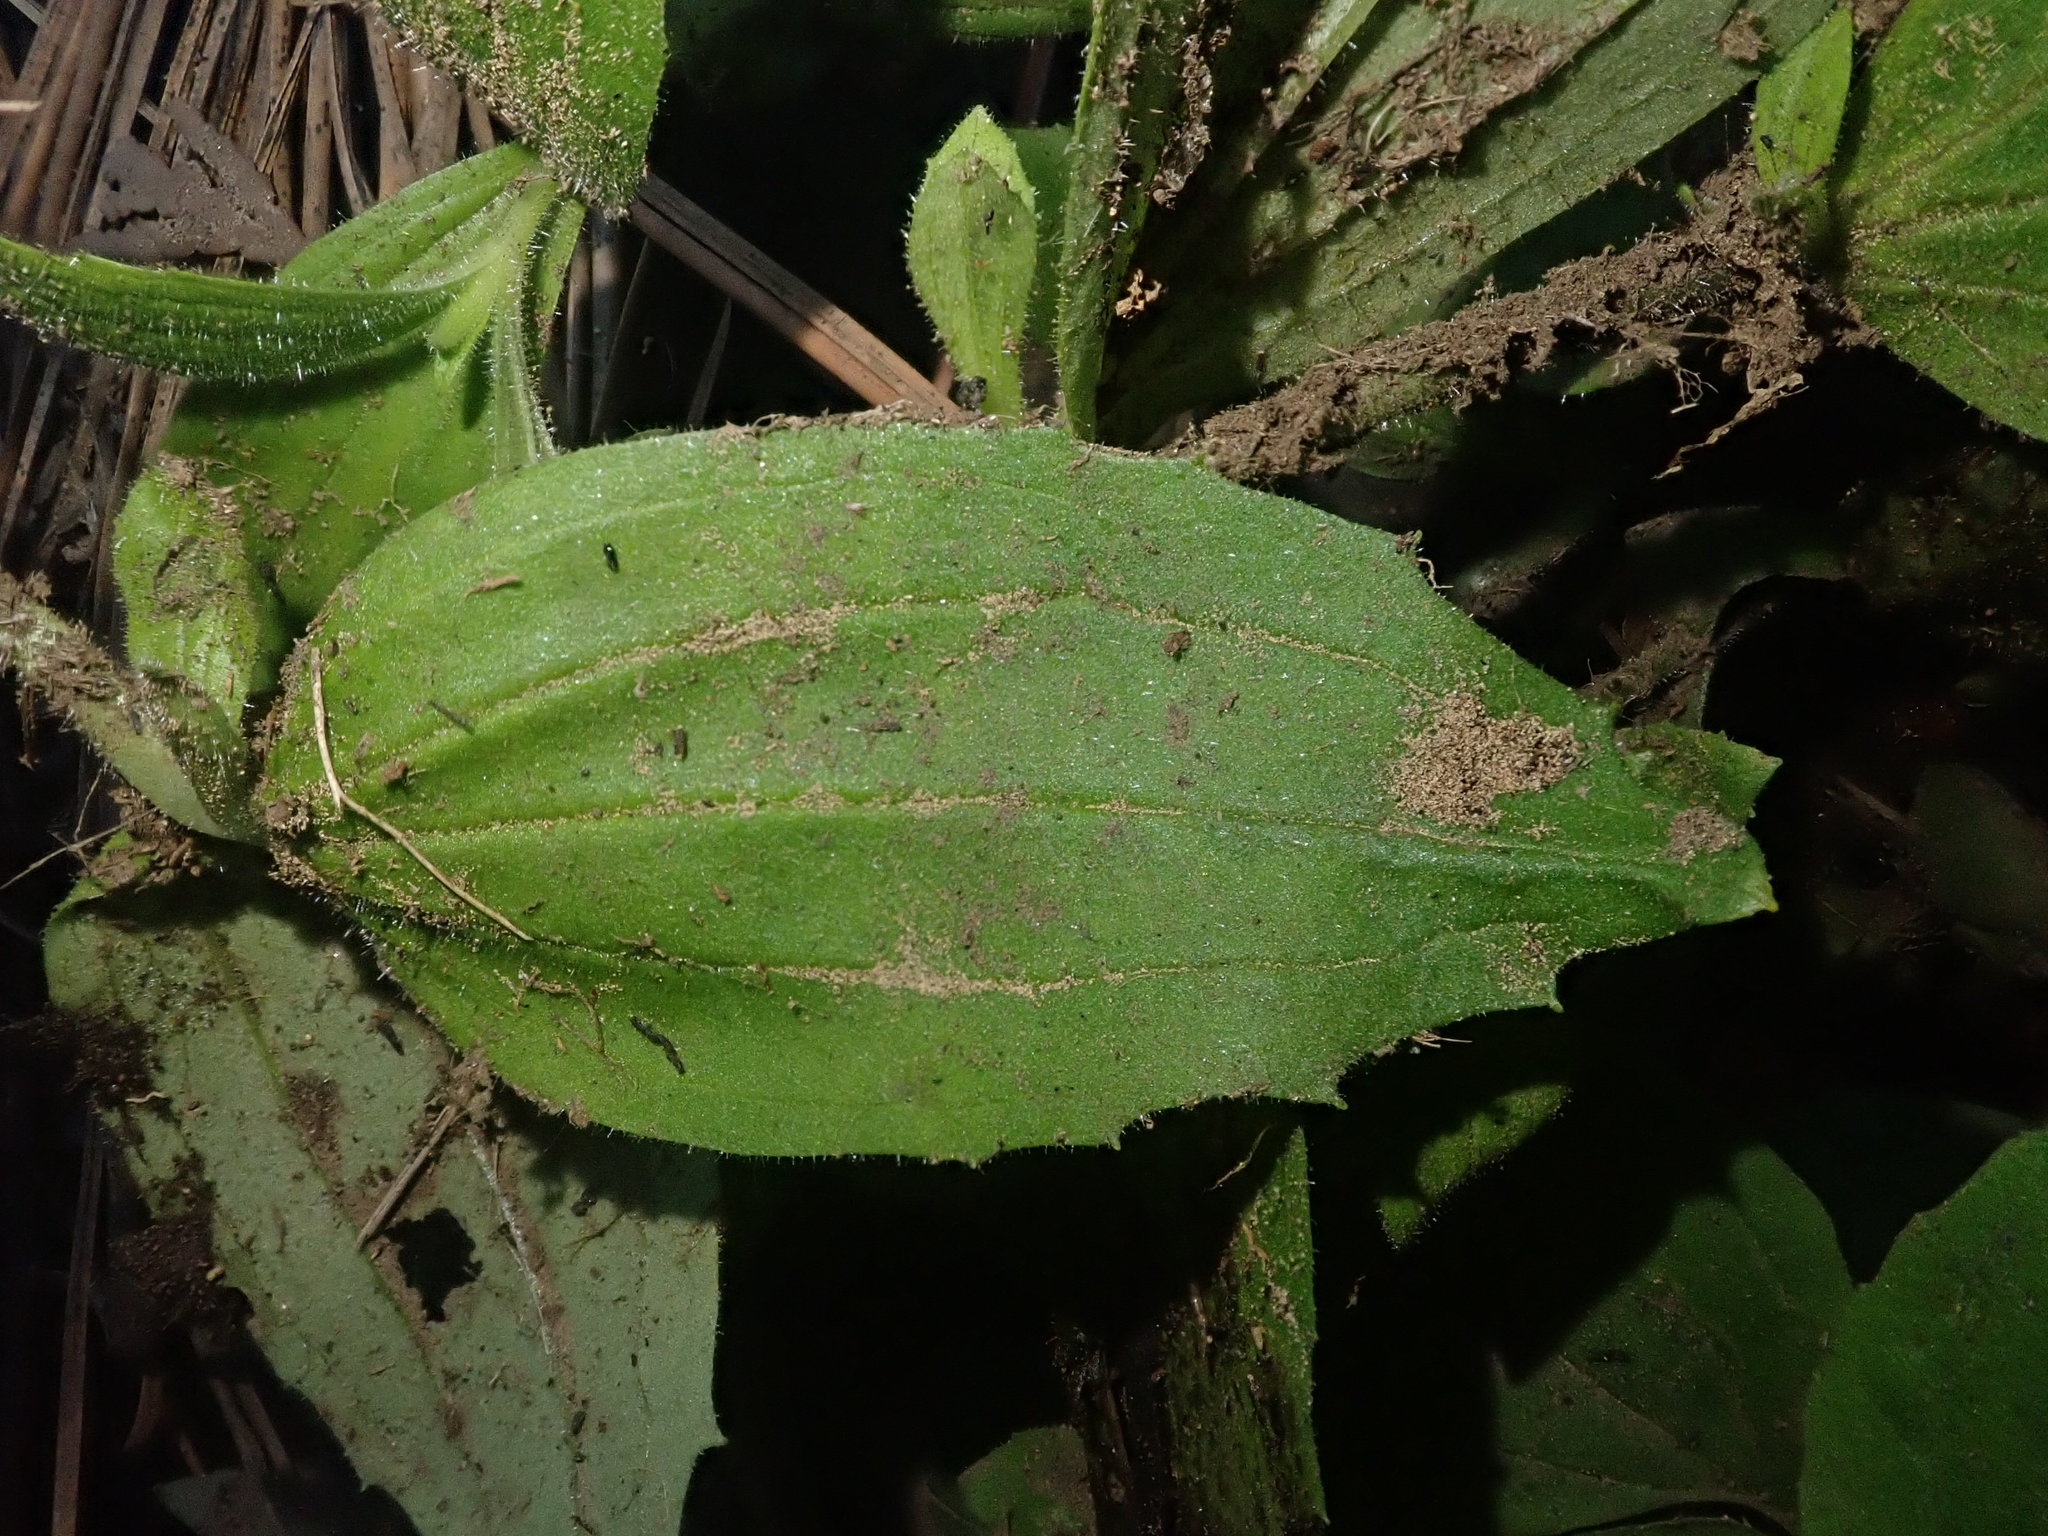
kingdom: Plantae
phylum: Tracheophyta
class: Magnoliopsida
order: Lamiales
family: Phrymaceae
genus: Erythranthe
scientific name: Erythranthe lewisii
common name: Lewis's monkey-flower
